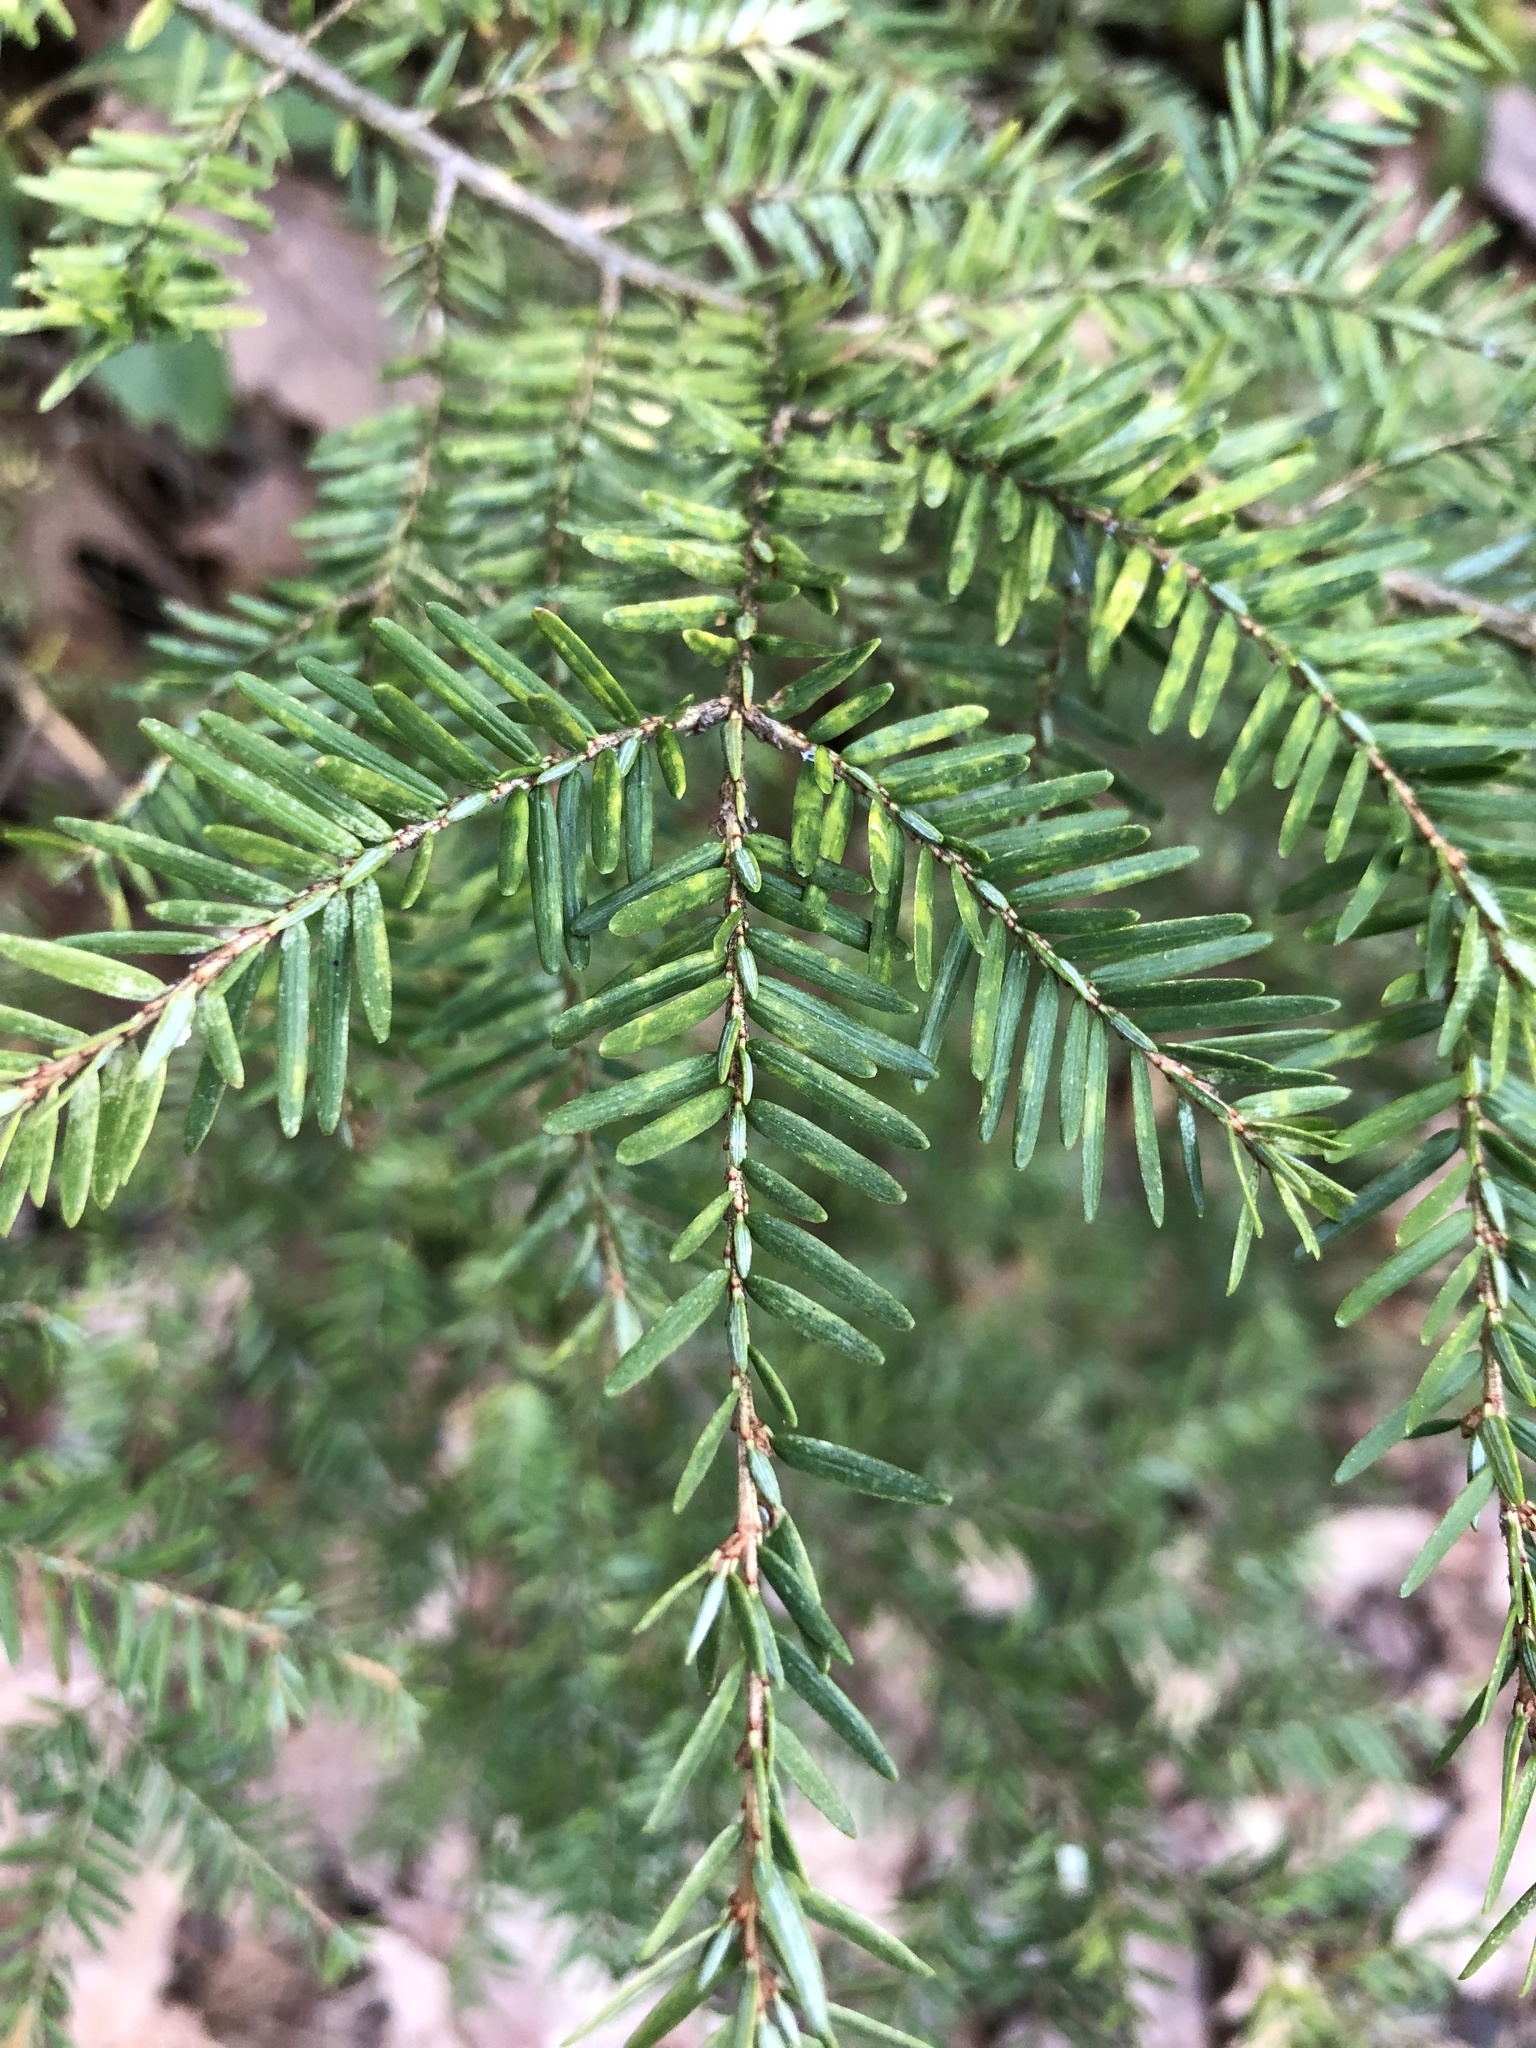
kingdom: Plantae
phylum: Tracheophyta
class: Pinopsida
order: Pinales
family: Pinaceae
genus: Tsuga
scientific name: Tsuga canadensis
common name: Eastern hemlock
